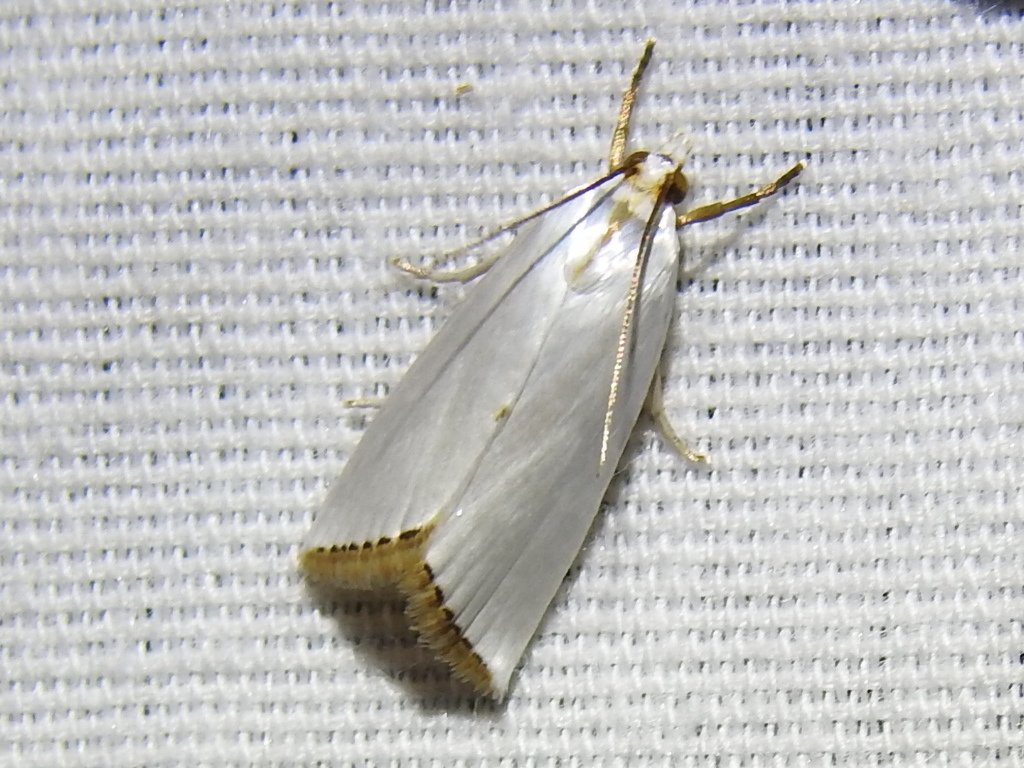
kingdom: Animalia
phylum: Arthropoda
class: Insecta
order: Lepidoptera
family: Crambidae
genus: Argyria
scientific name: Argyria nivalis
